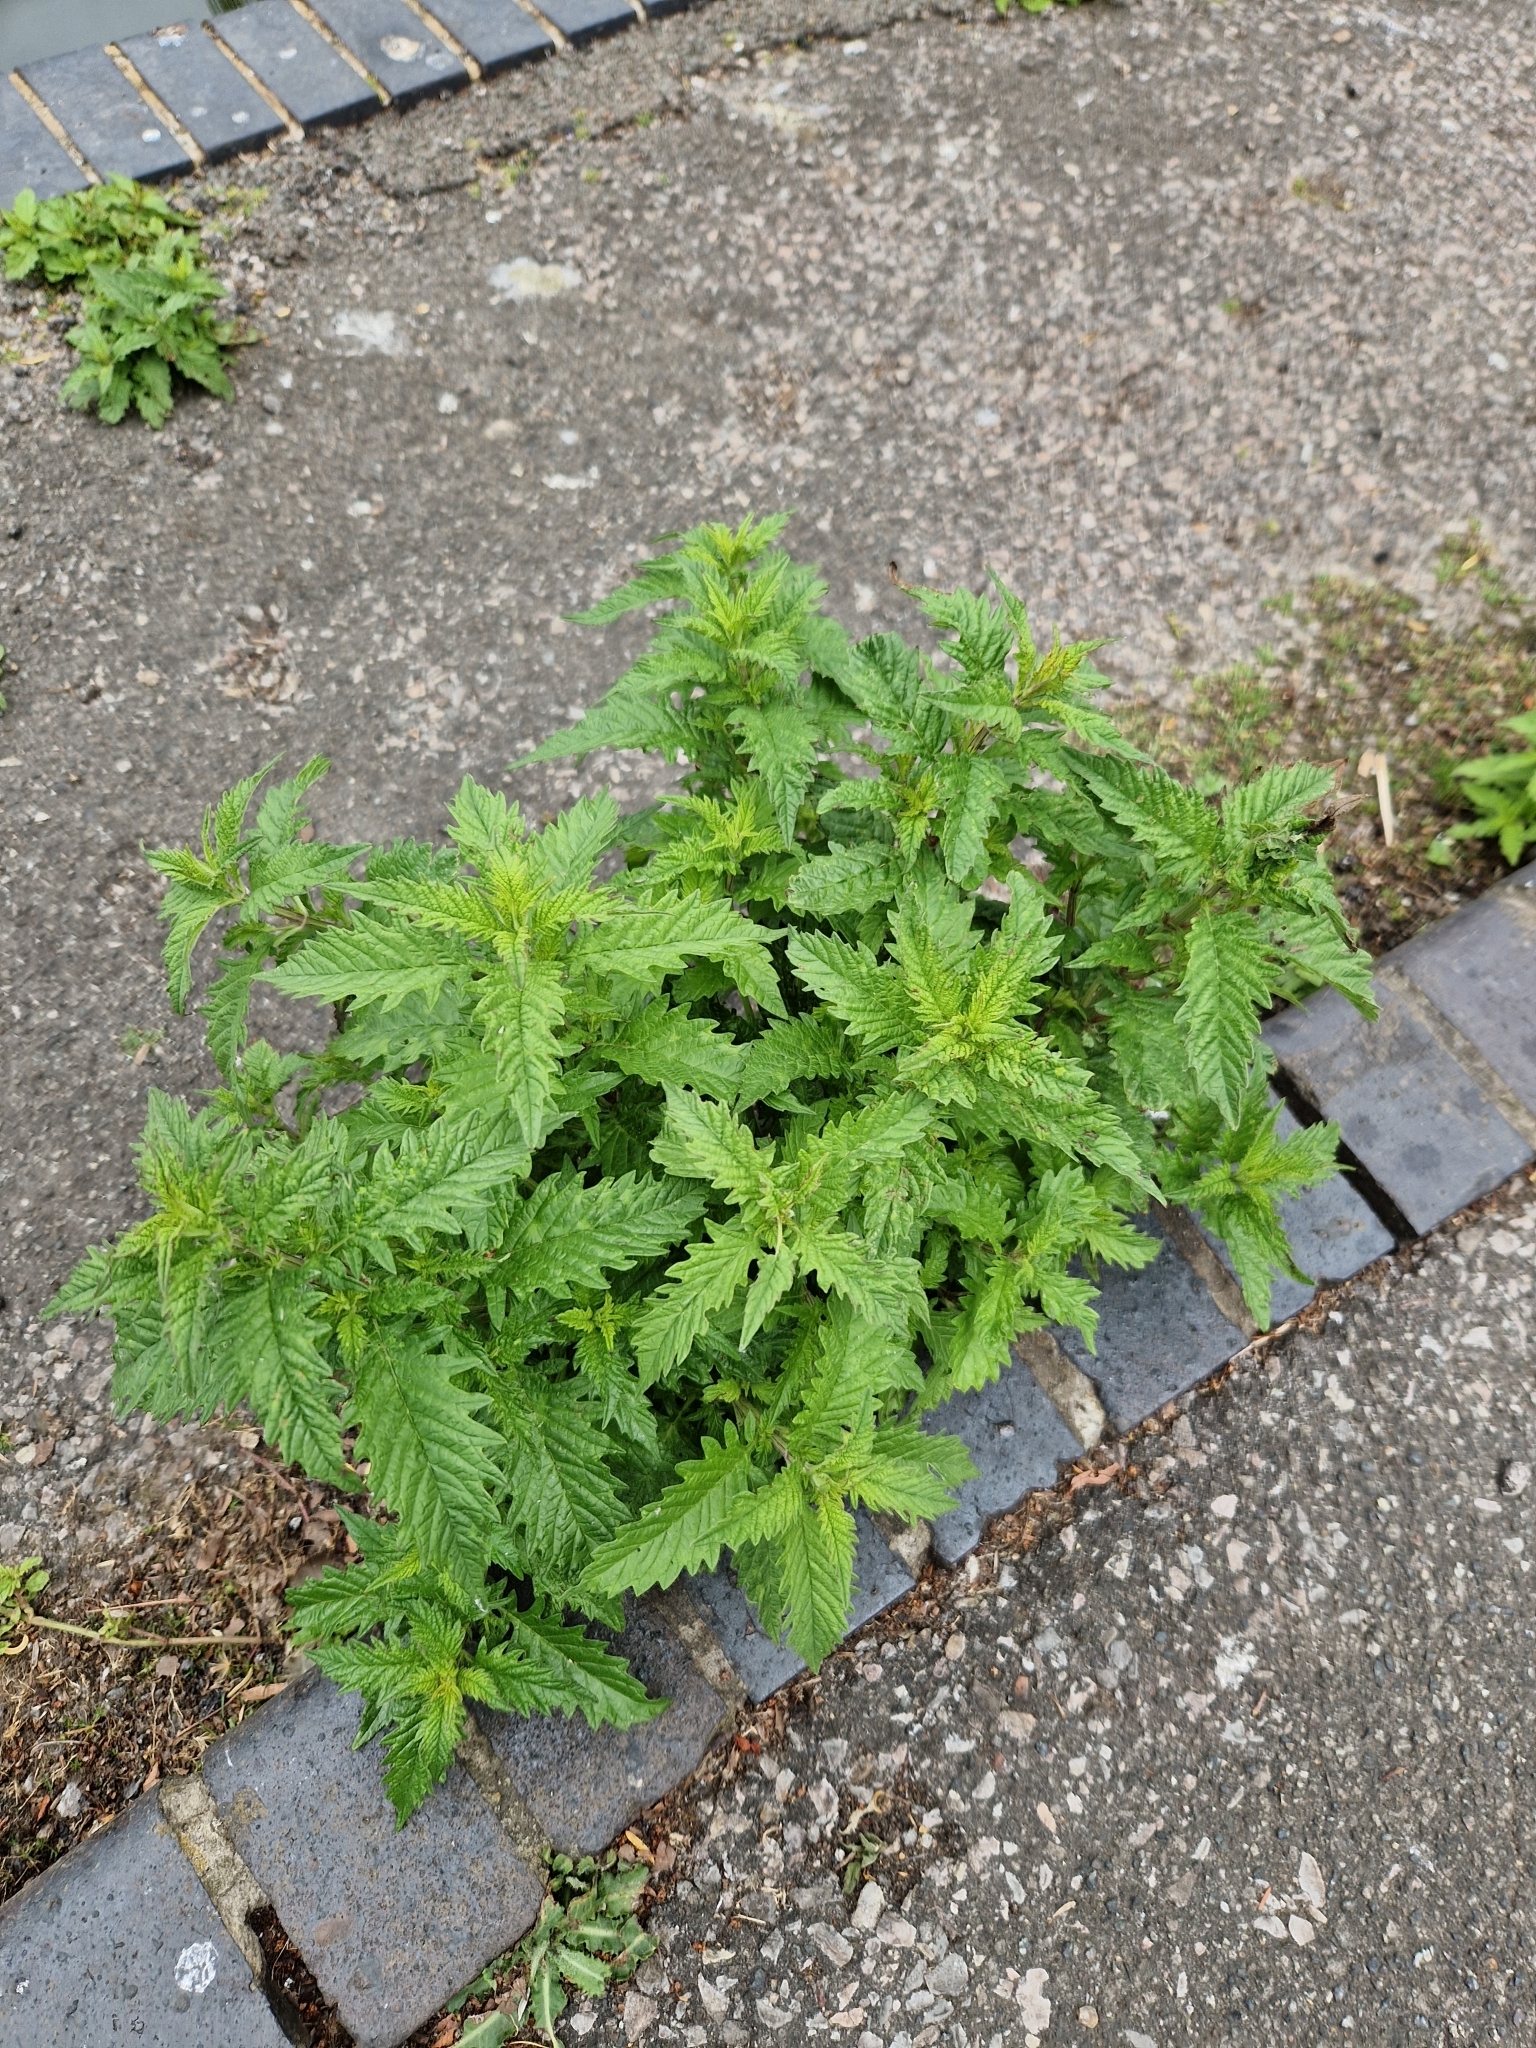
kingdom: Plantae
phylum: Tracheophyta
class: Magnoliopsida
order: Lamiales
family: Lamiaceae
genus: Lycopus
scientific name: Lycopus europaeus
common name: European bugleweed
